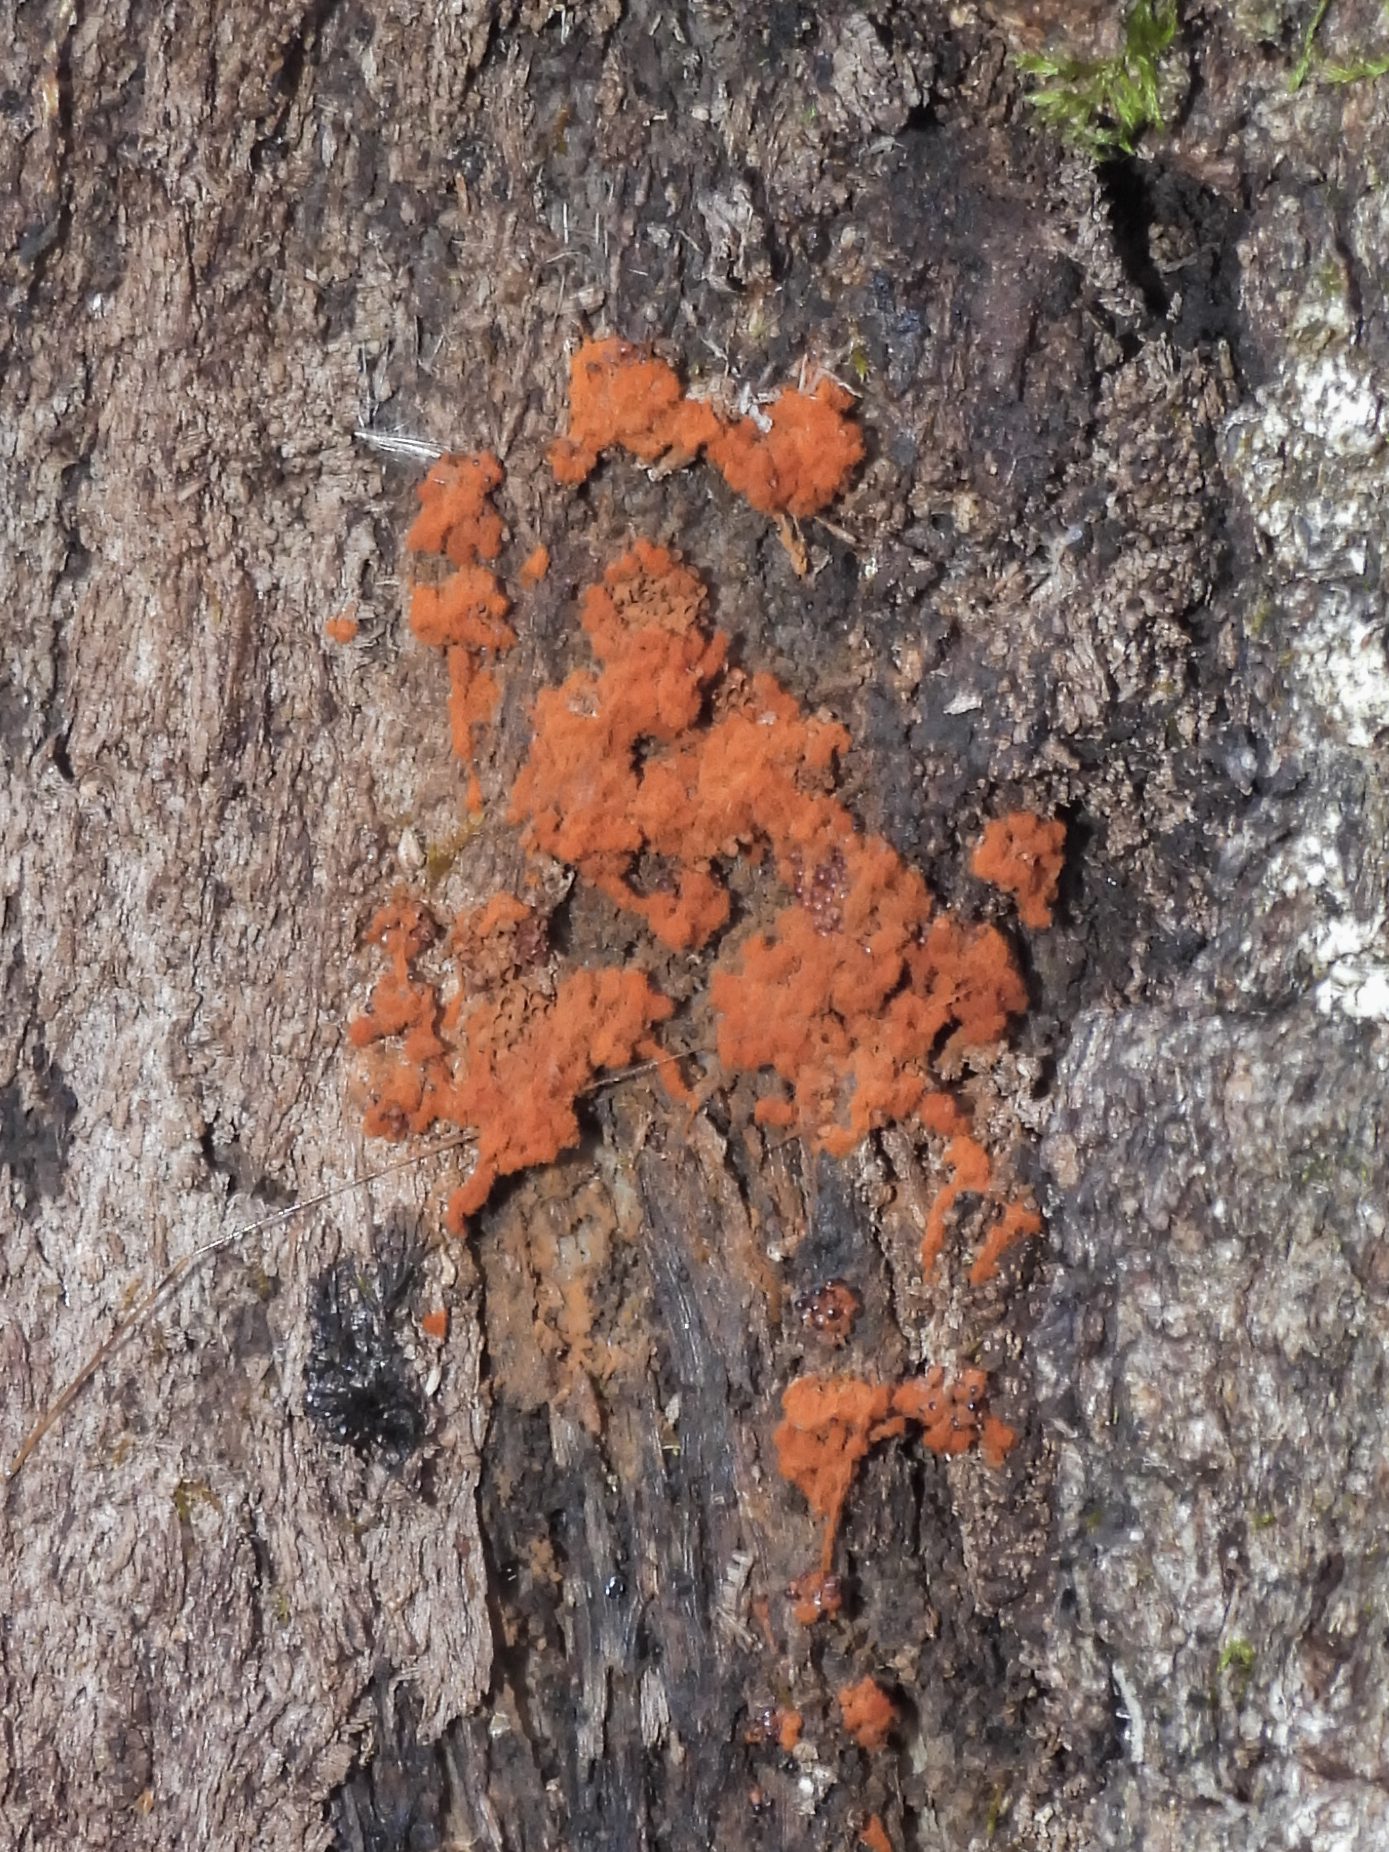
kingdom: Protozoa
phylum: Mycetozoa
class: Myxomycetes
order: Trichiales
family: Trichiaceae
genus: Metatrichia
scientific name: Metatrichia vesparia
